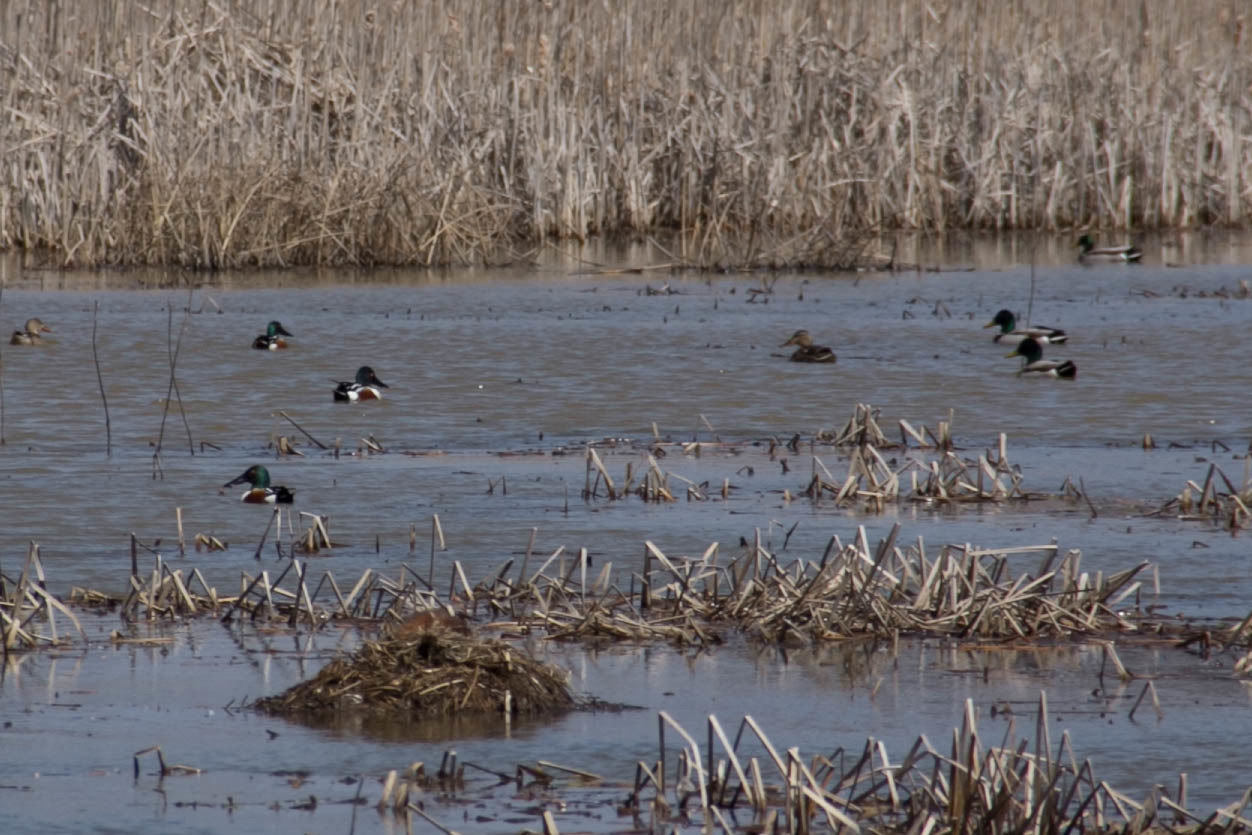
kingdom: Animalia
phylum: Chordata
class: Aves
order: Anseriformes
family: Anatidae
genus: Spatula
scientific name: Spatula clypeata
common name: Northern shoveler
